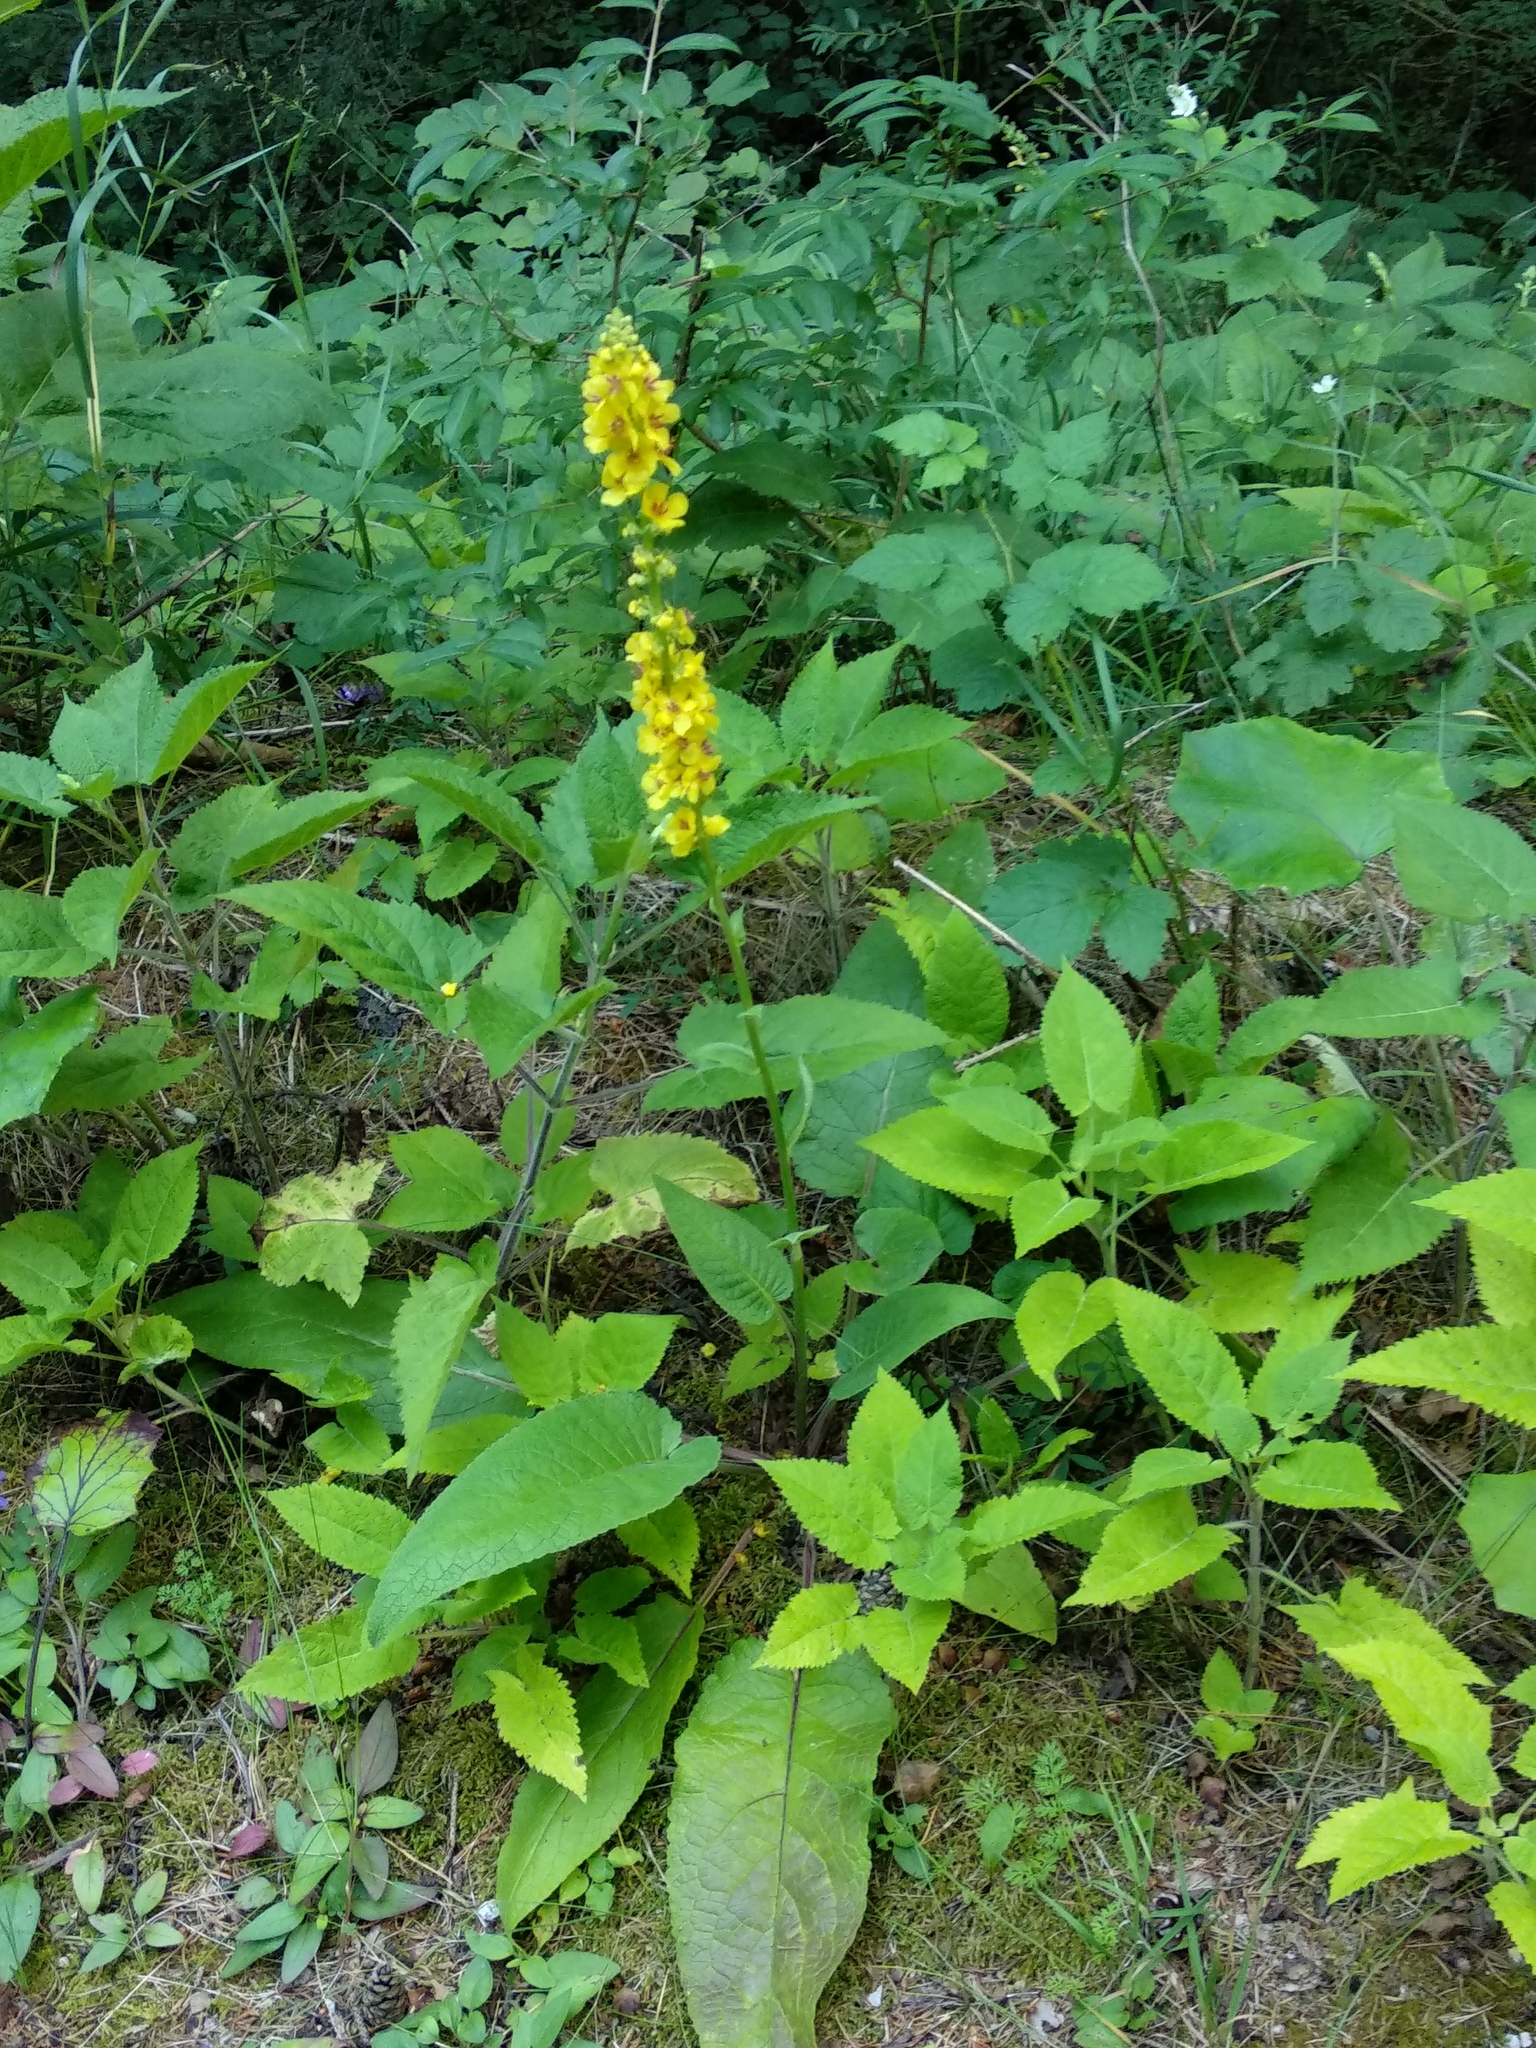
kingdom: Plantae
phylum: Tracheophyta
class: Magnoliopsida
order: Lamiales
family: Scrophulariaceae
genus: Verbascum
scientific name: Verbascum nigrum
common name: Dark mullein
